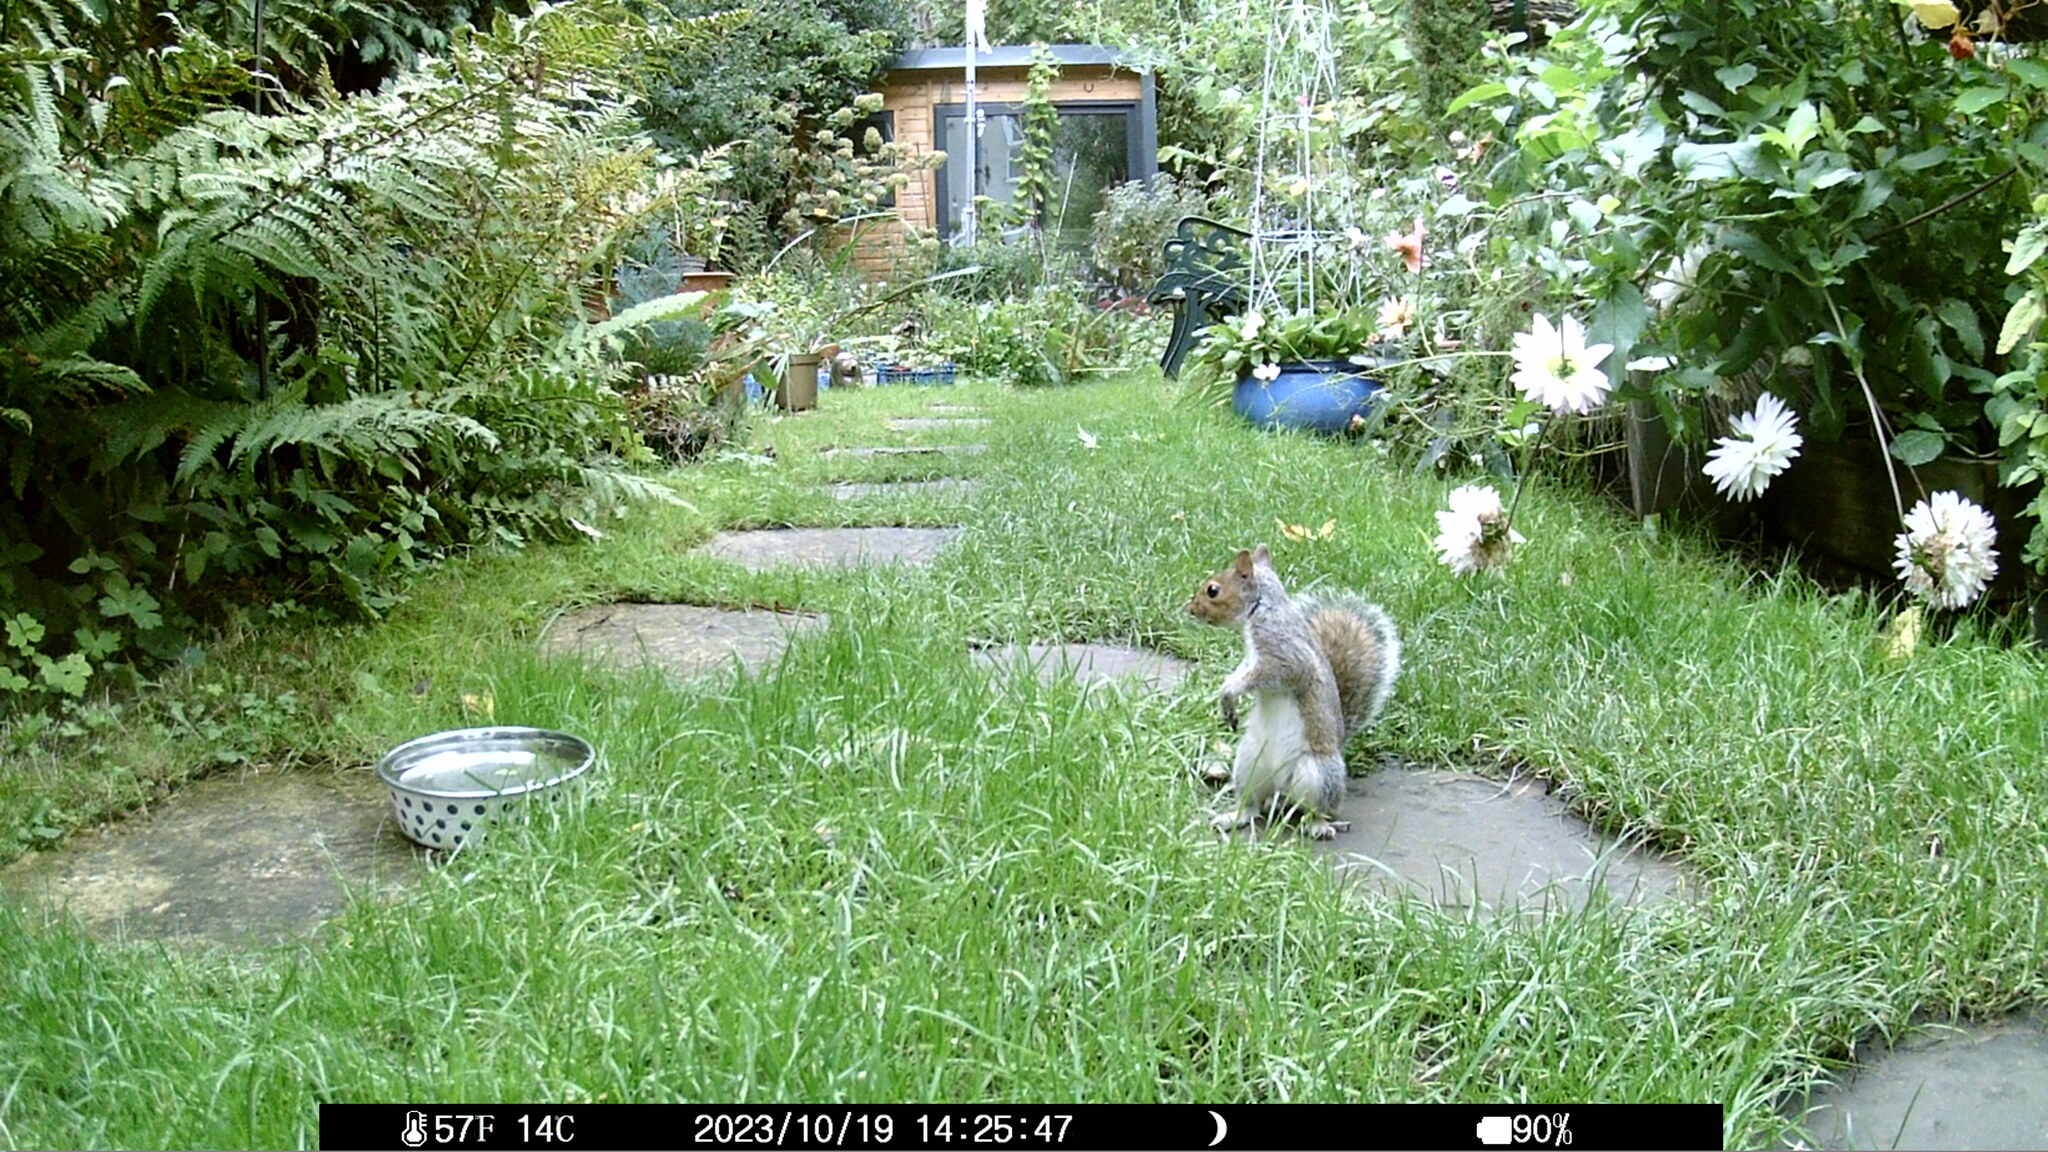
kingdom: Animalia
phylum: Chordata
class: Mammalia
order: Rodentia
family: Sciuridae
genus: Sciurus
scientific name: Sciurus carolinensis
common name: Eastern gray squirrel
